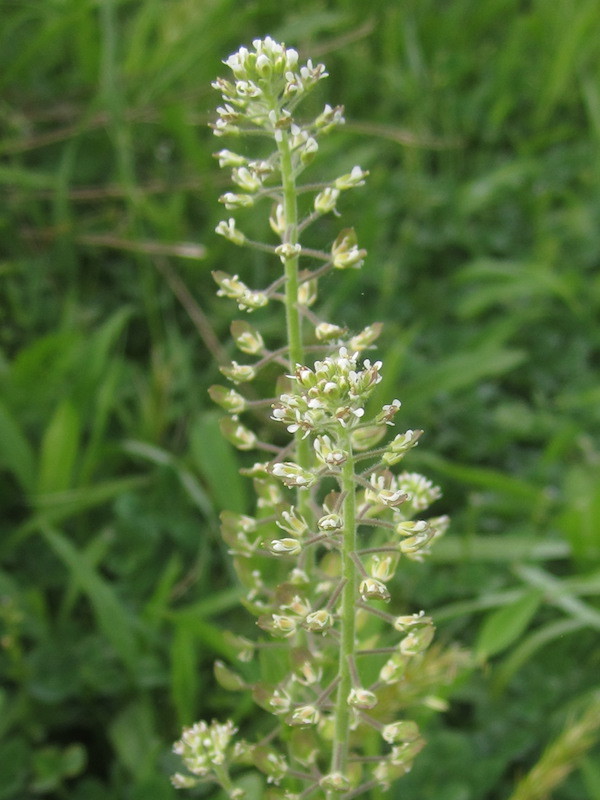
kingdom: Plantae
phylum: Tracheophyta
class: Magnoliopsida
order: Brassicales
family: Brassicaceae
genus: Lepidium
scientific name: Lepidium campestre
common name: Field pepperwort
